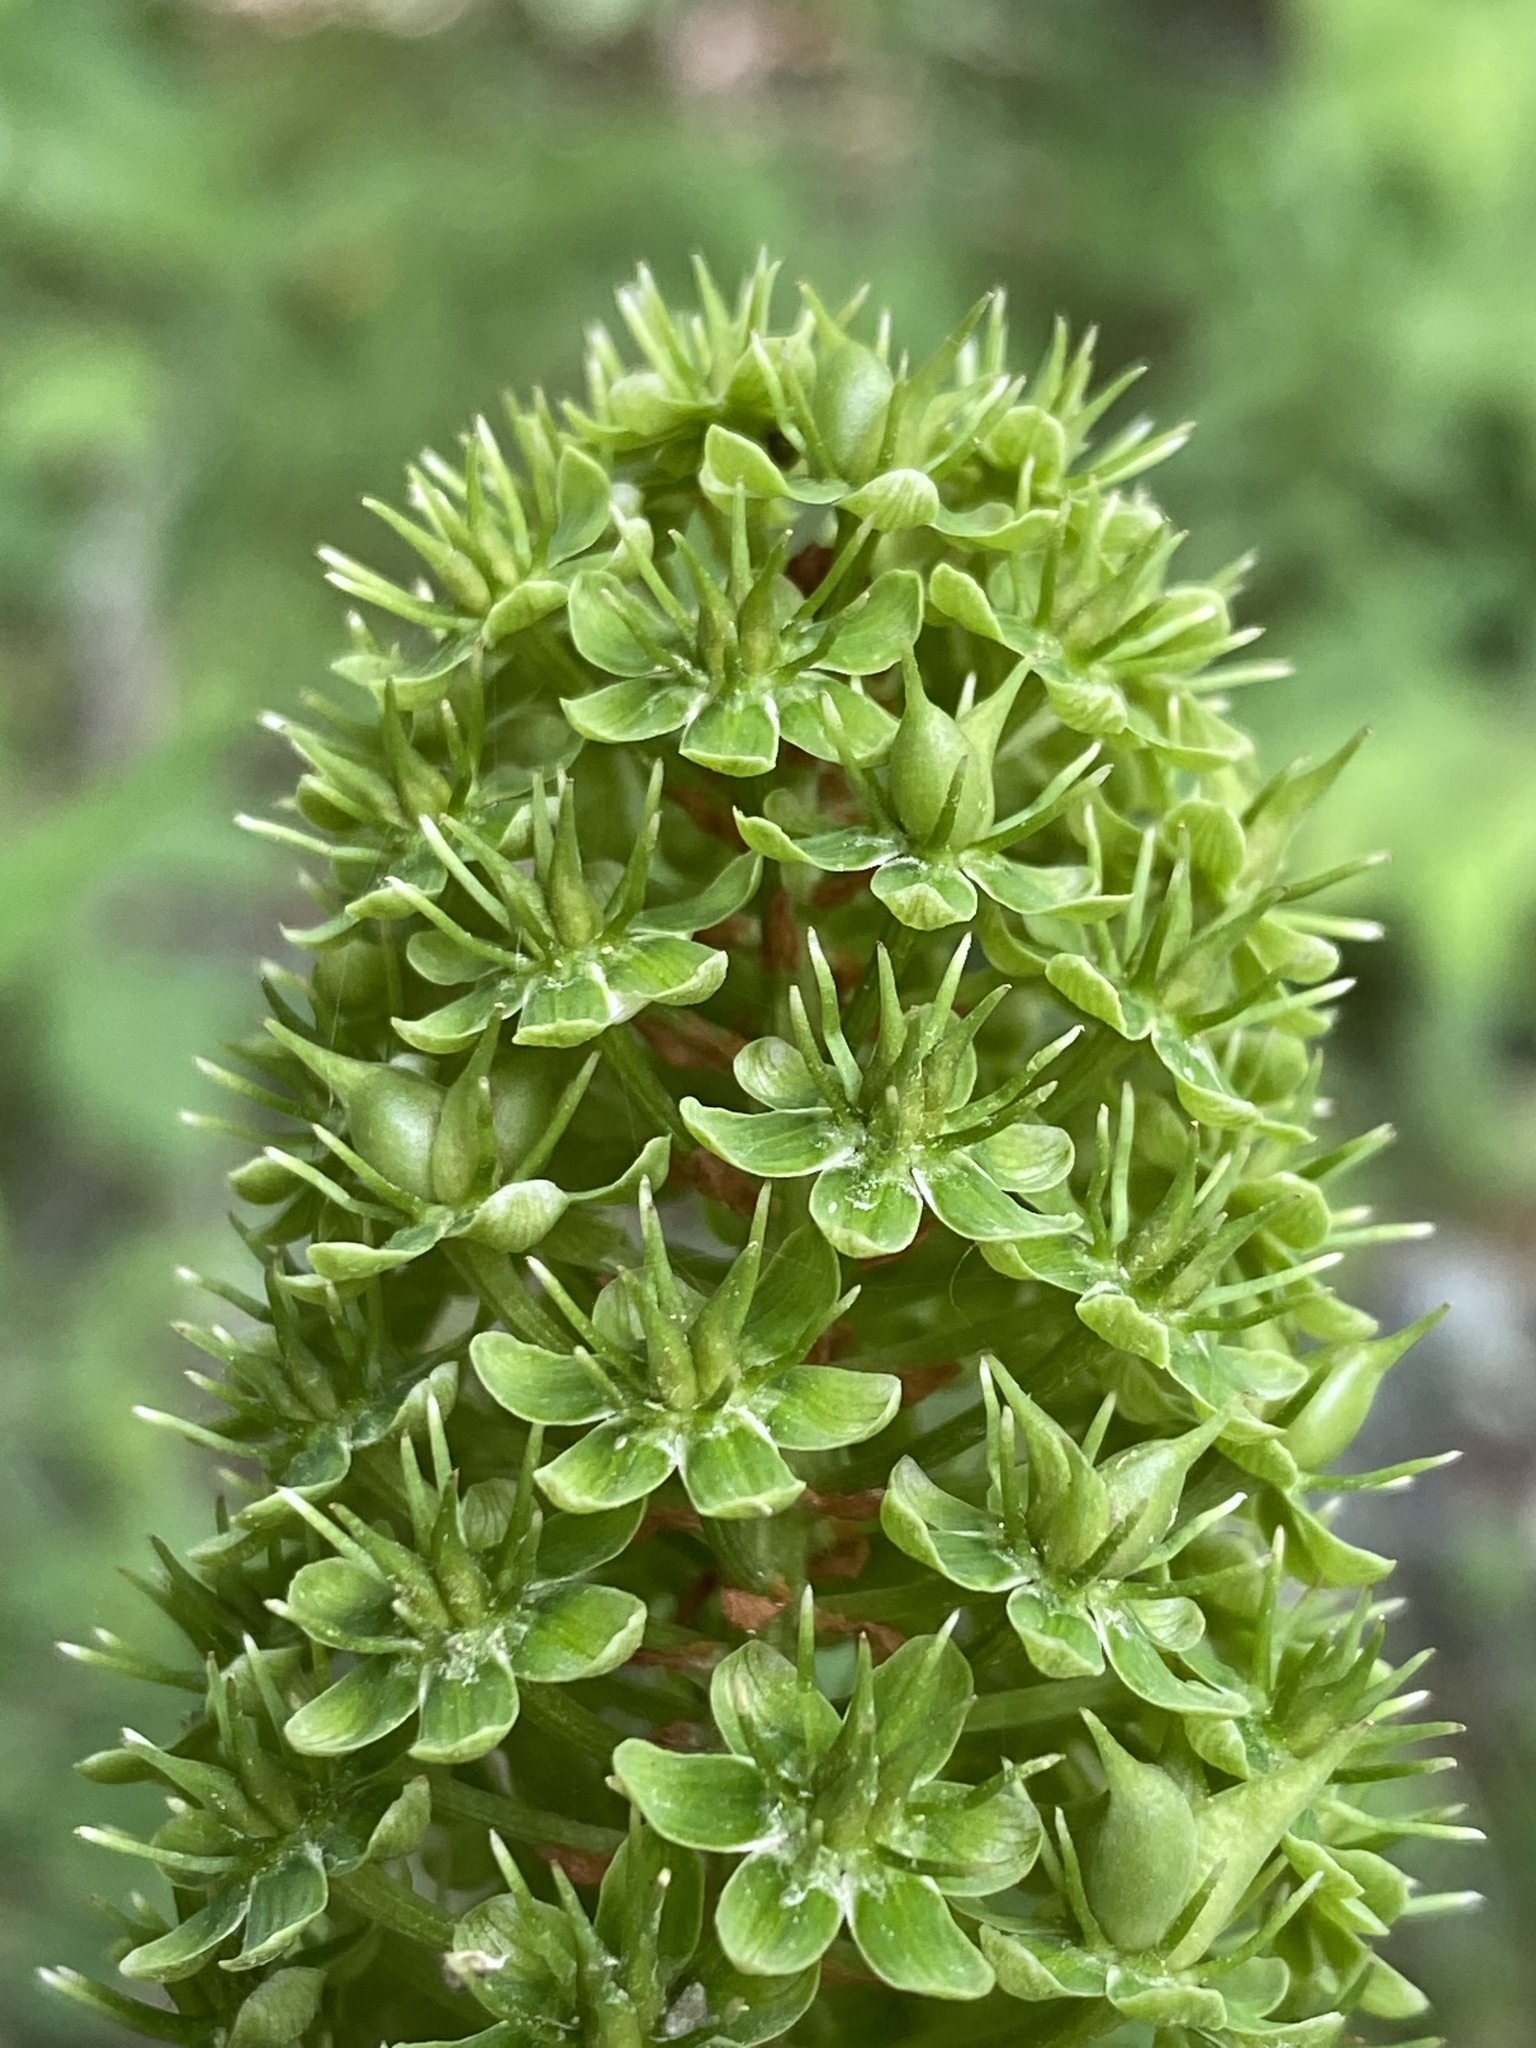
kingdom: Plantae
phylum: Tracheophyta
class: Liliopsida
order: Liliales
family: Melanthiaceae
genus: Amianthium
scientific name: Amianthium muscitoxicum
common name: Fly-poison
